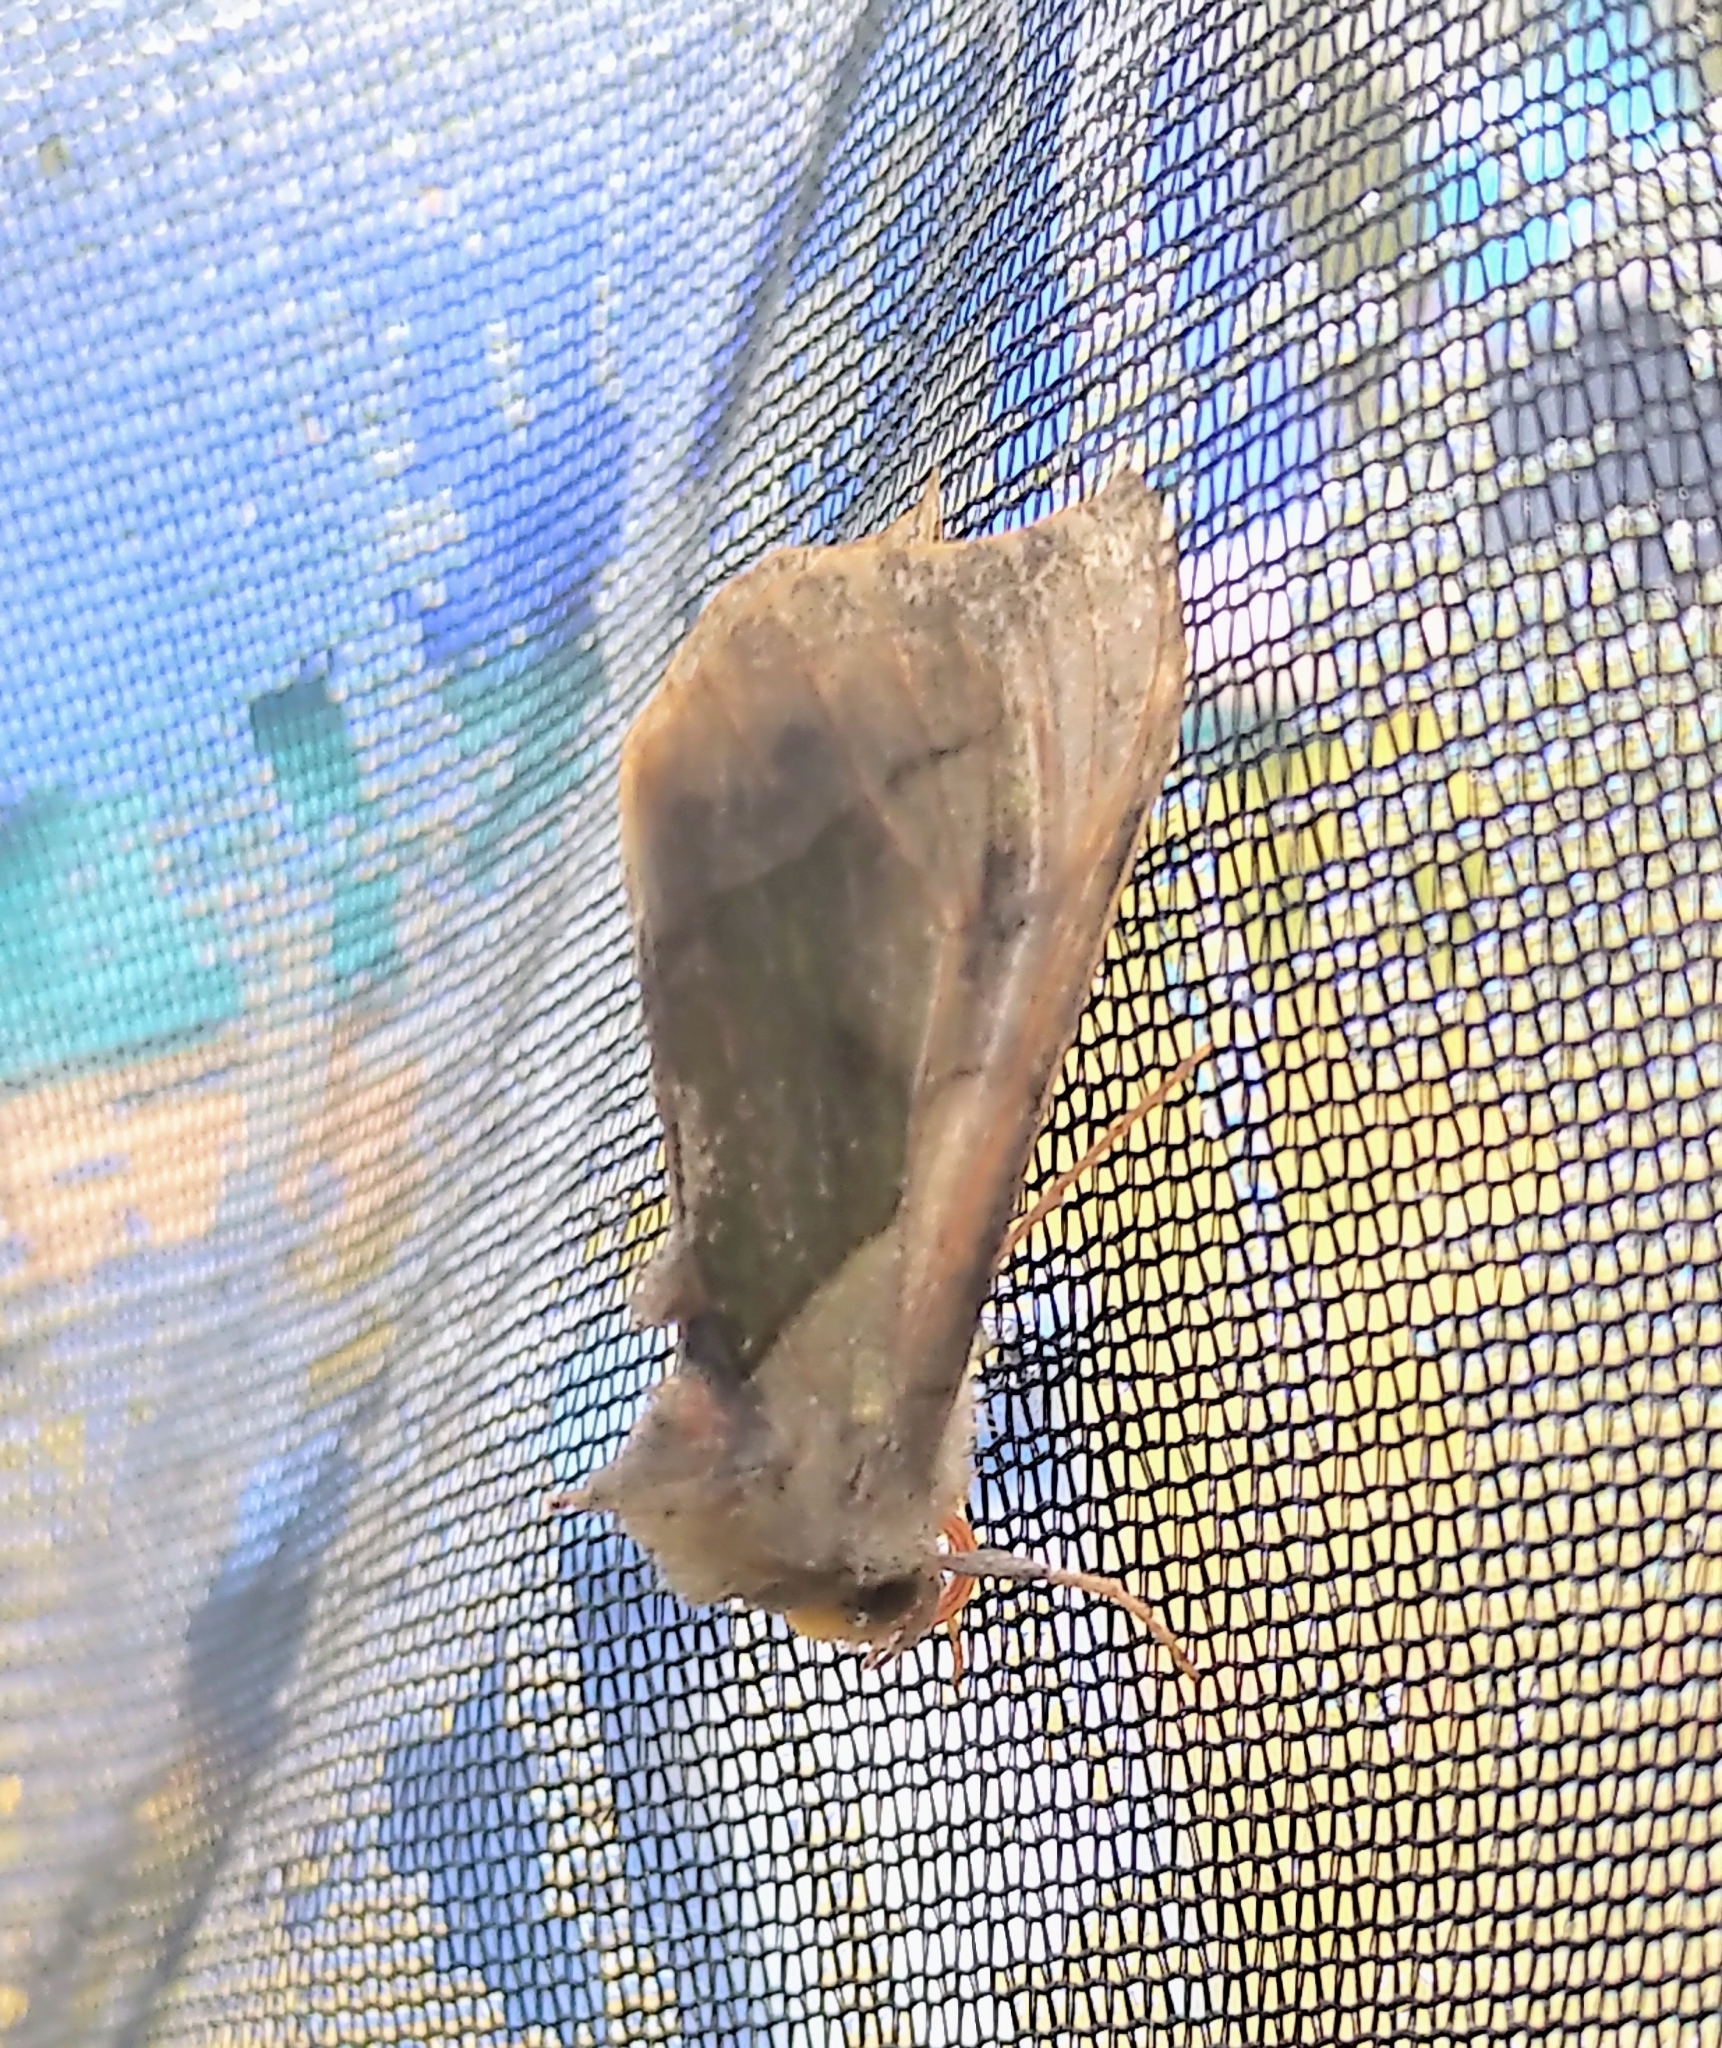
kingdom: Animalia
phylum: Arthropoda
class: Insecta
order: Lepidoptera
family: Noctuidae
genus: Diachrysia
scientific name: Diachrysia balluca
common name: Green-patched looper moth
